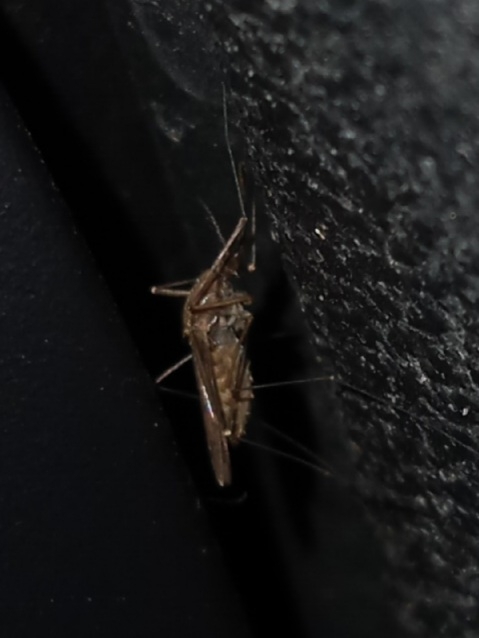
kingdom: Animalia
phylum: Arthropoda
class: Insecta
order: Diptera
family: Culicidae
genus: Anopheles
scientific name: Anopheles
